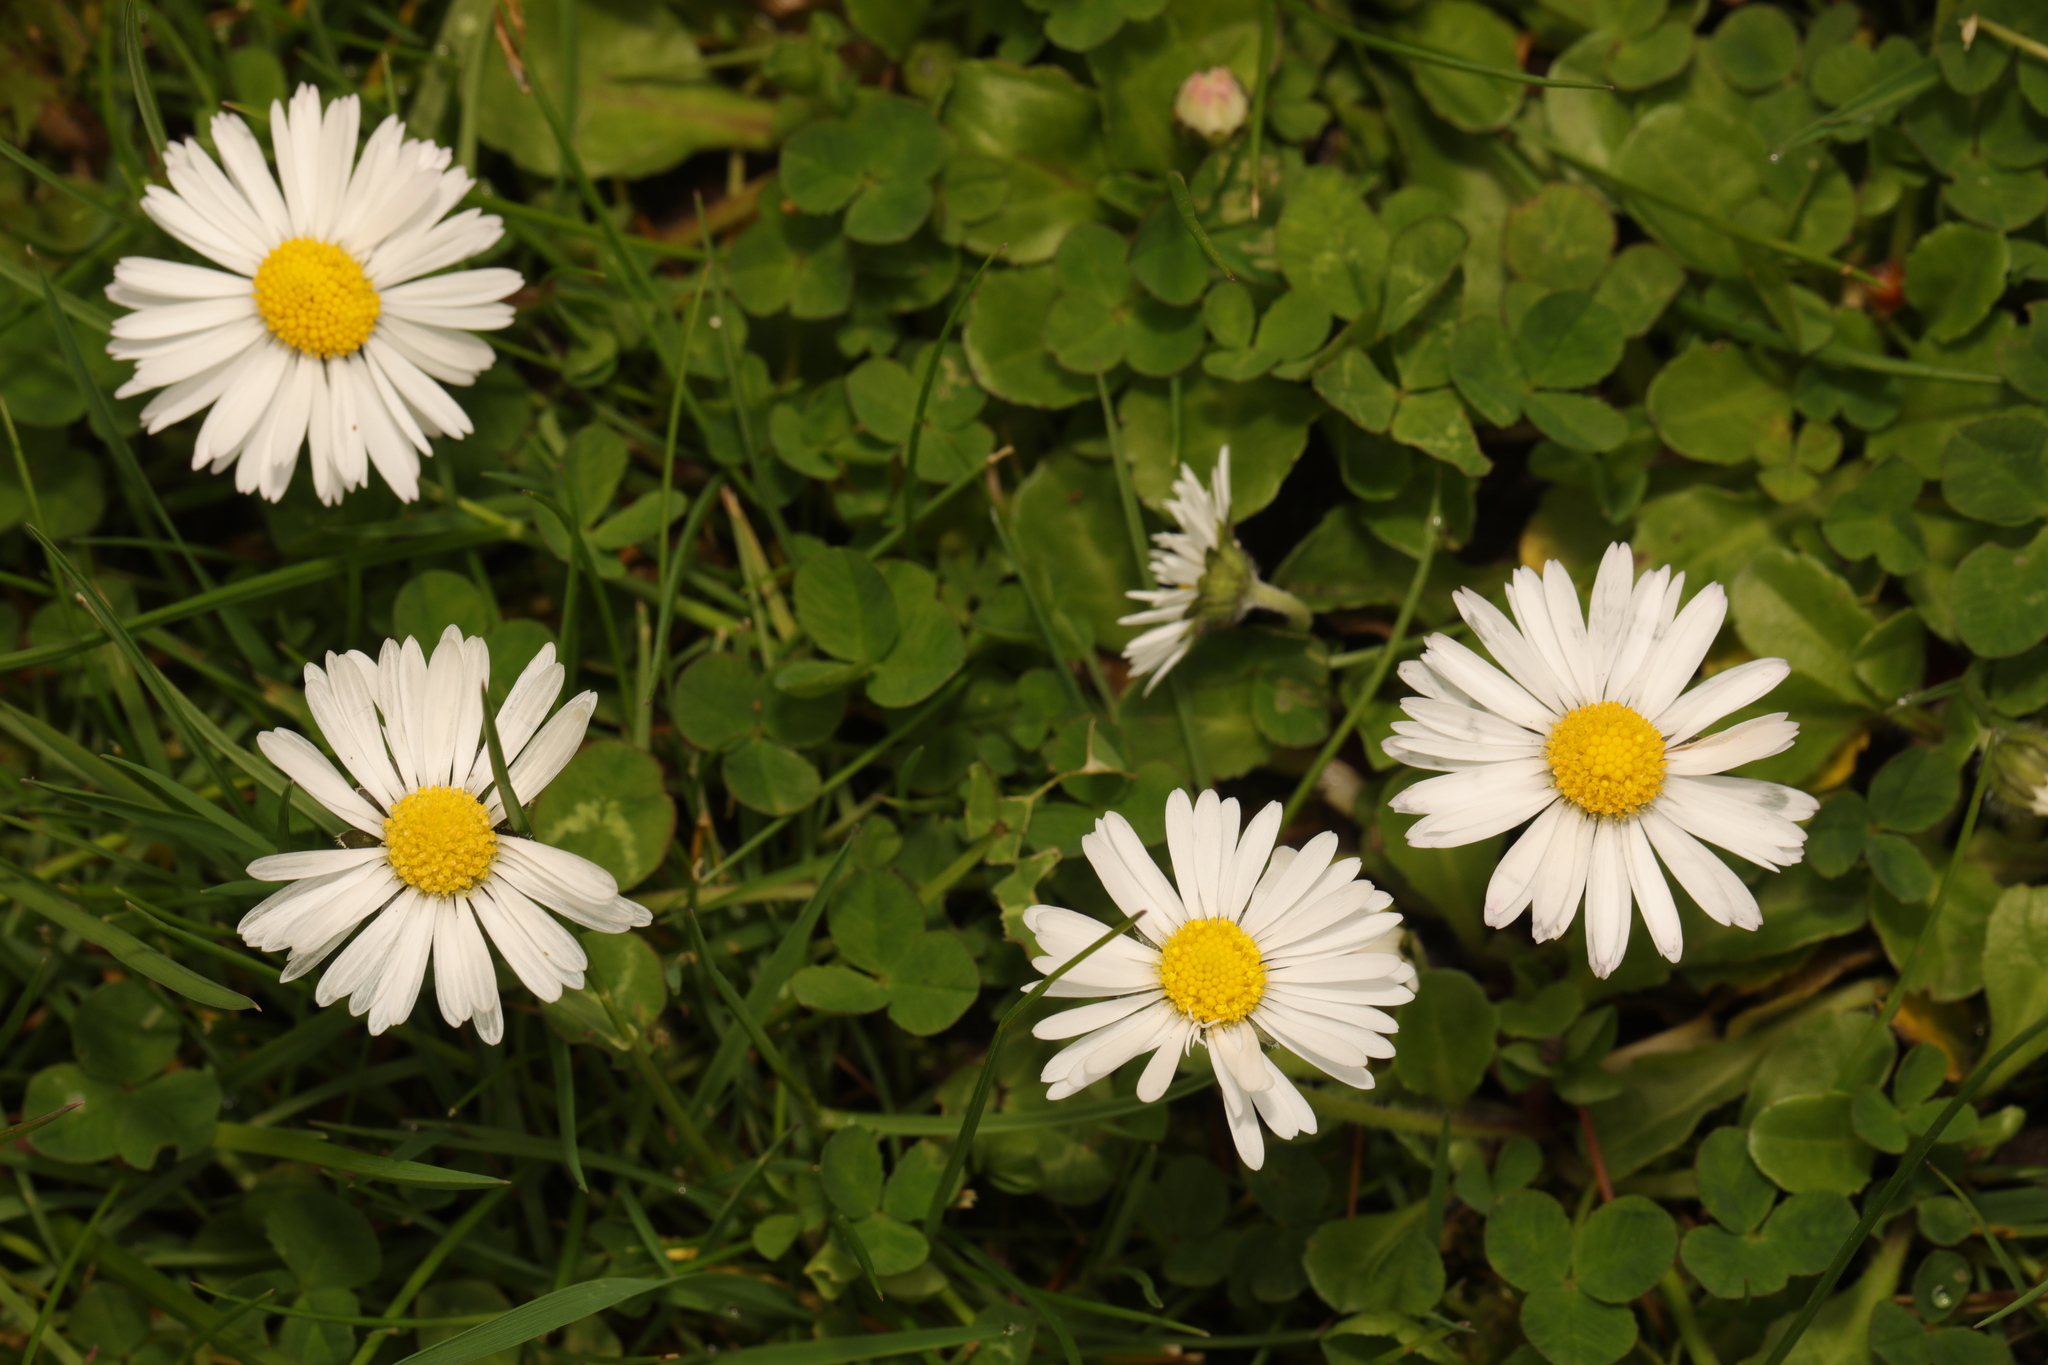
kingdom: Plantae
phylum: Tracheophyta
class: Magnoliopsida
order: Asterales
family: Asteraceae
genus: Bellis
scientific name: Bellis perennis
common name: Lawndaisy
